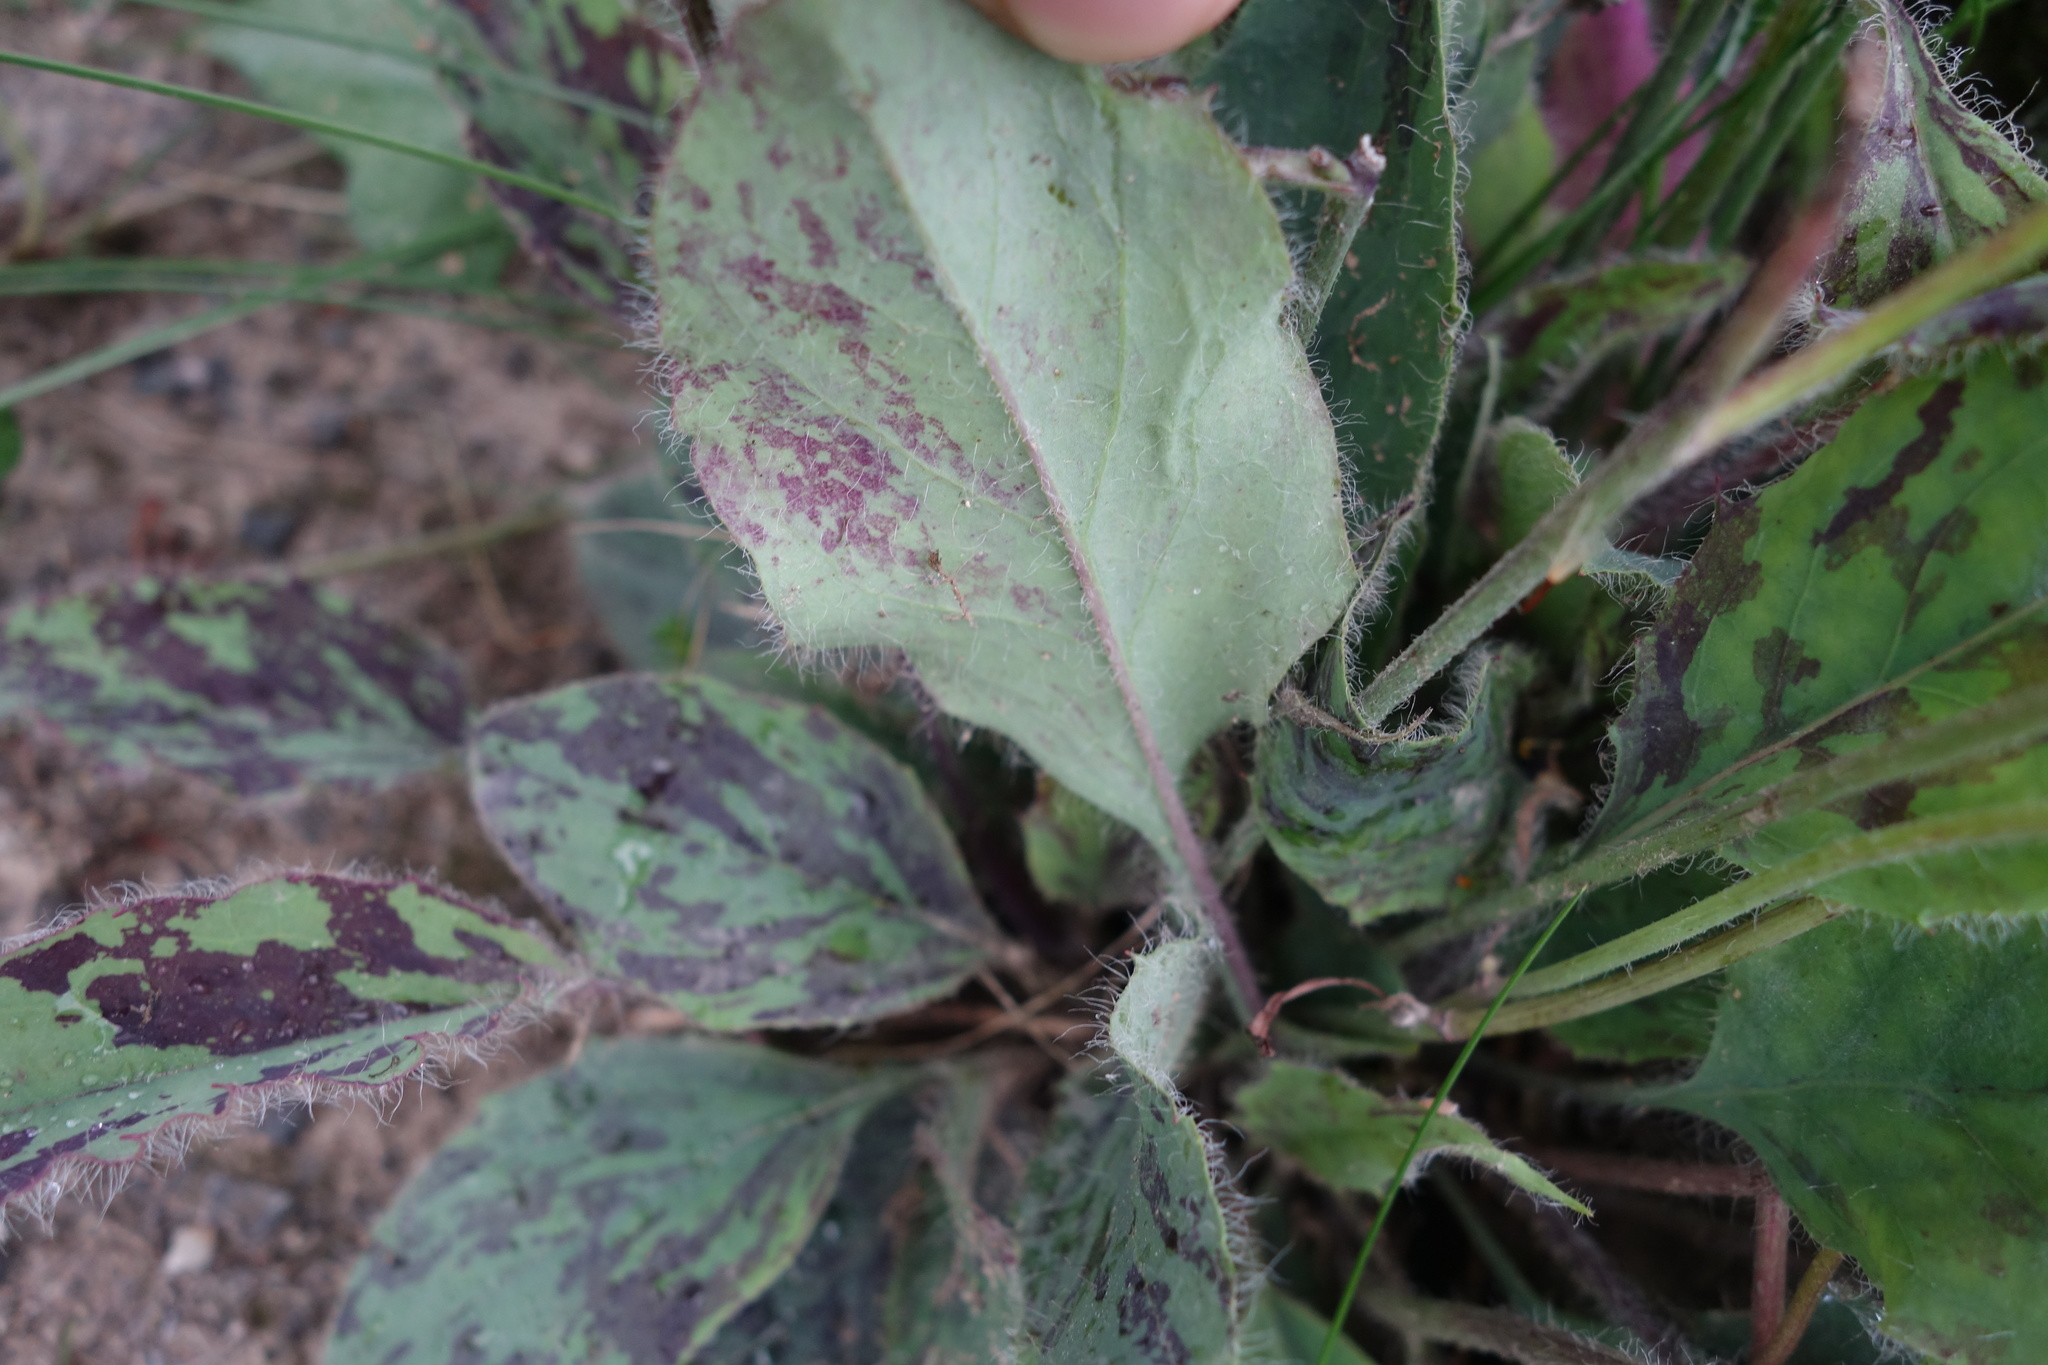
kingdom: Plantae
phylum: Tracheophyta
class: Magnoliopsida
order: Asterales
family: Asteraceae
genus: Hieracium
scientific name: Hieracium maculatum
